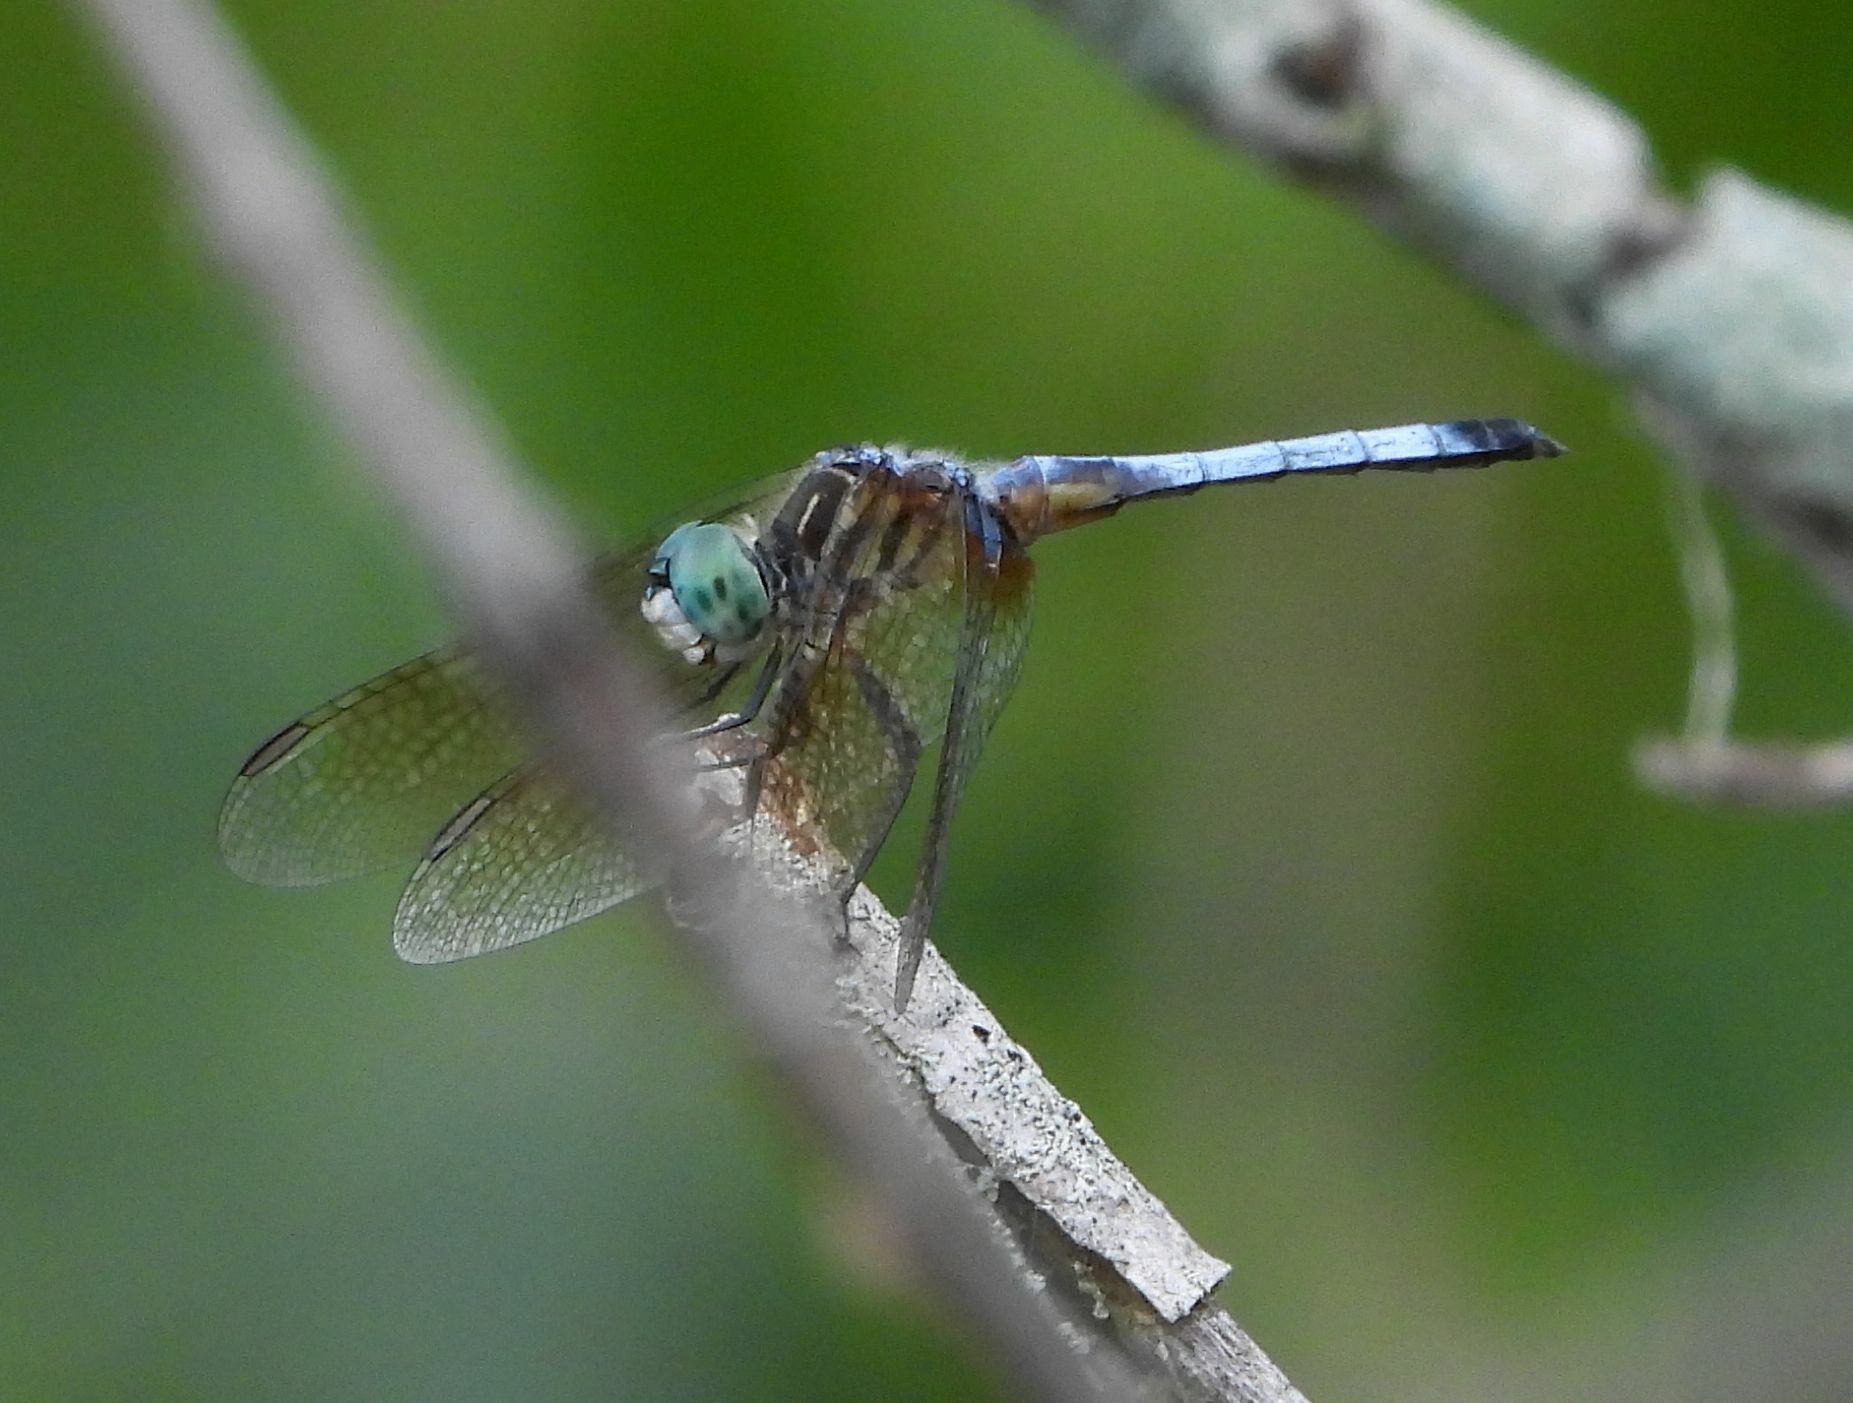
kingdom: Animalia
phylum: Arthropoda
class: Insecta
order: Odonata
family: Libellulidae
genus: Pachydiplax
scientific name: Pachydiplax longipennis
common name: Blue dasher
